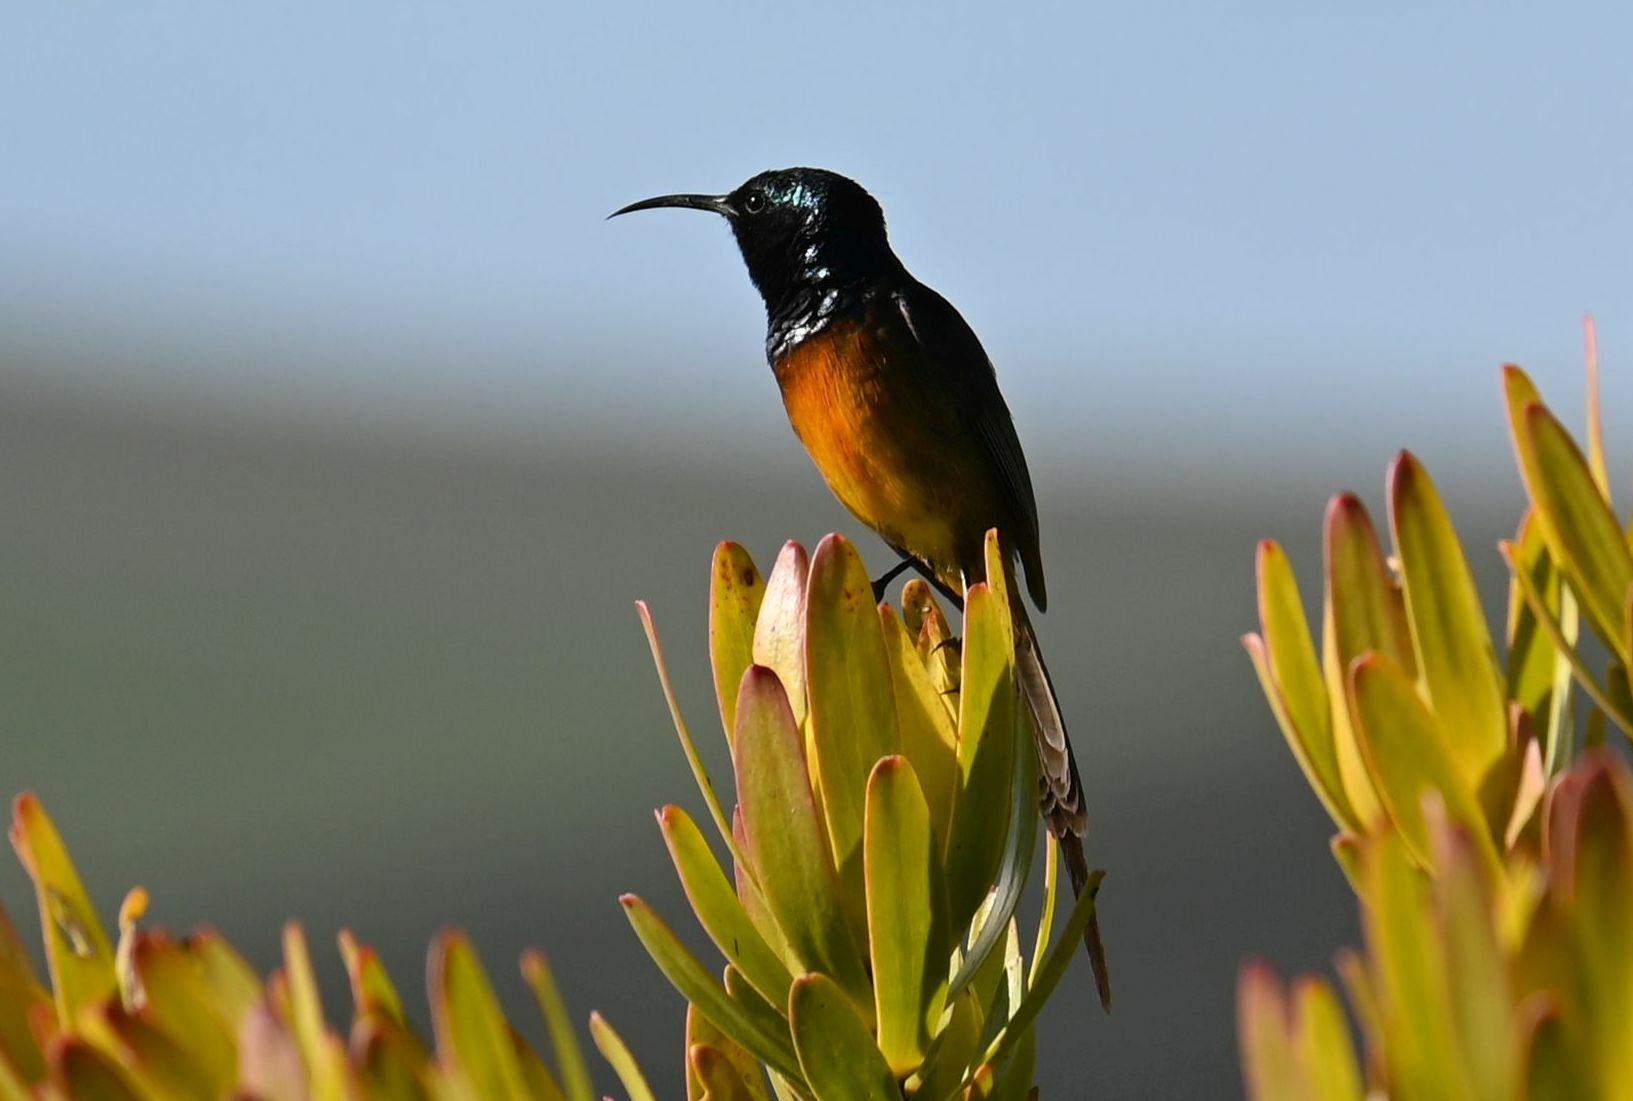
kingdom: Animalia
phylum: Chordata
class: Aves
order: Passeriformes
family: Nectariniidae
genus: Anthobaphes
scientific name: Anthobaphes violacea
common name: Orange-breasted sunbird
